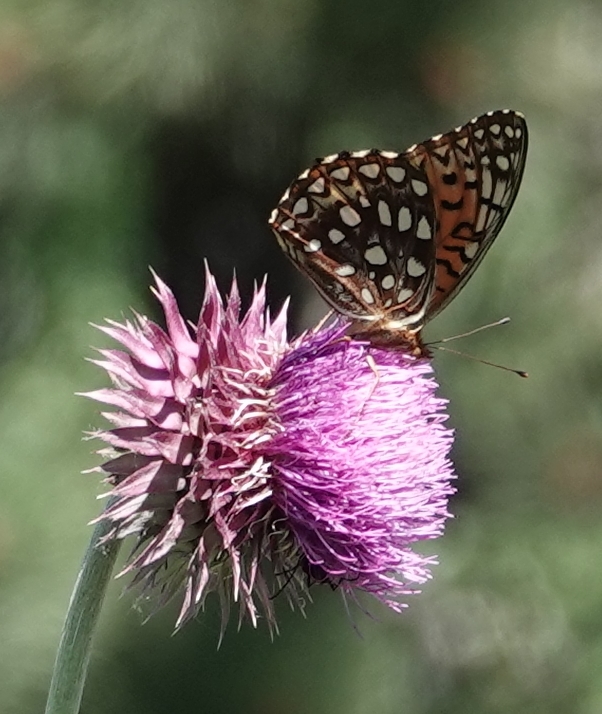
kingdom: Animalia
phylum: Arthropoda
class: Insecta
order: Lepidoptera
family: Nymphalidae
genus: Speyeria
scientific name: Speyeria aphrodite
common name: Aphrodite friitllary
